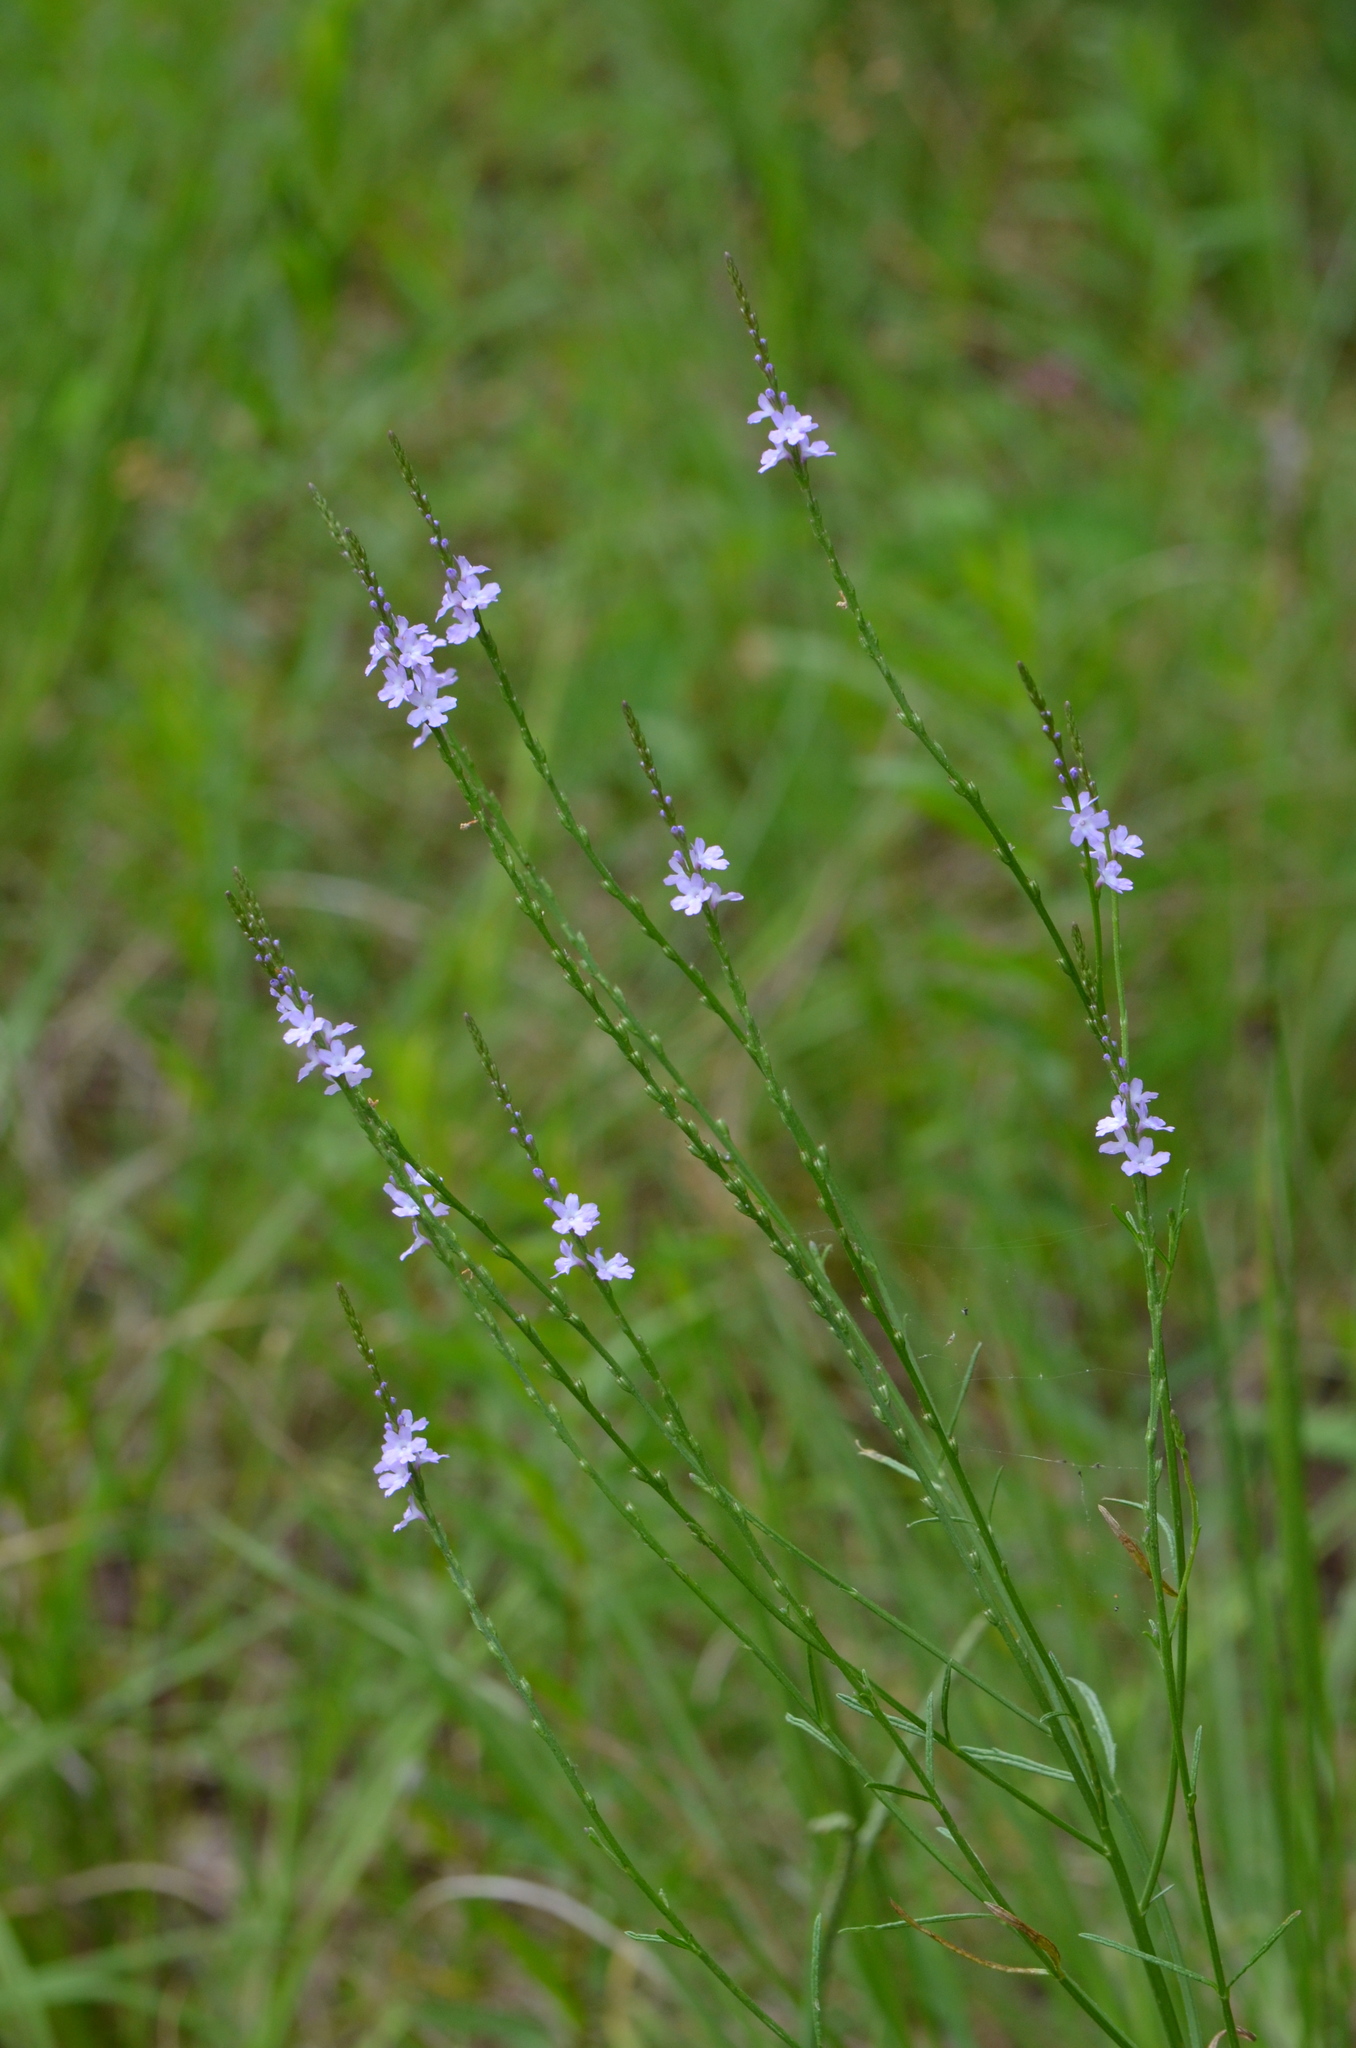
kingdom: Plantae
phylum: Tracheophyta
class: Magnoliopsida
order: Lamiales
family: Verbenaceae
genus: Verbena
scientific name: Verbena halei
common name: Texas vervain
